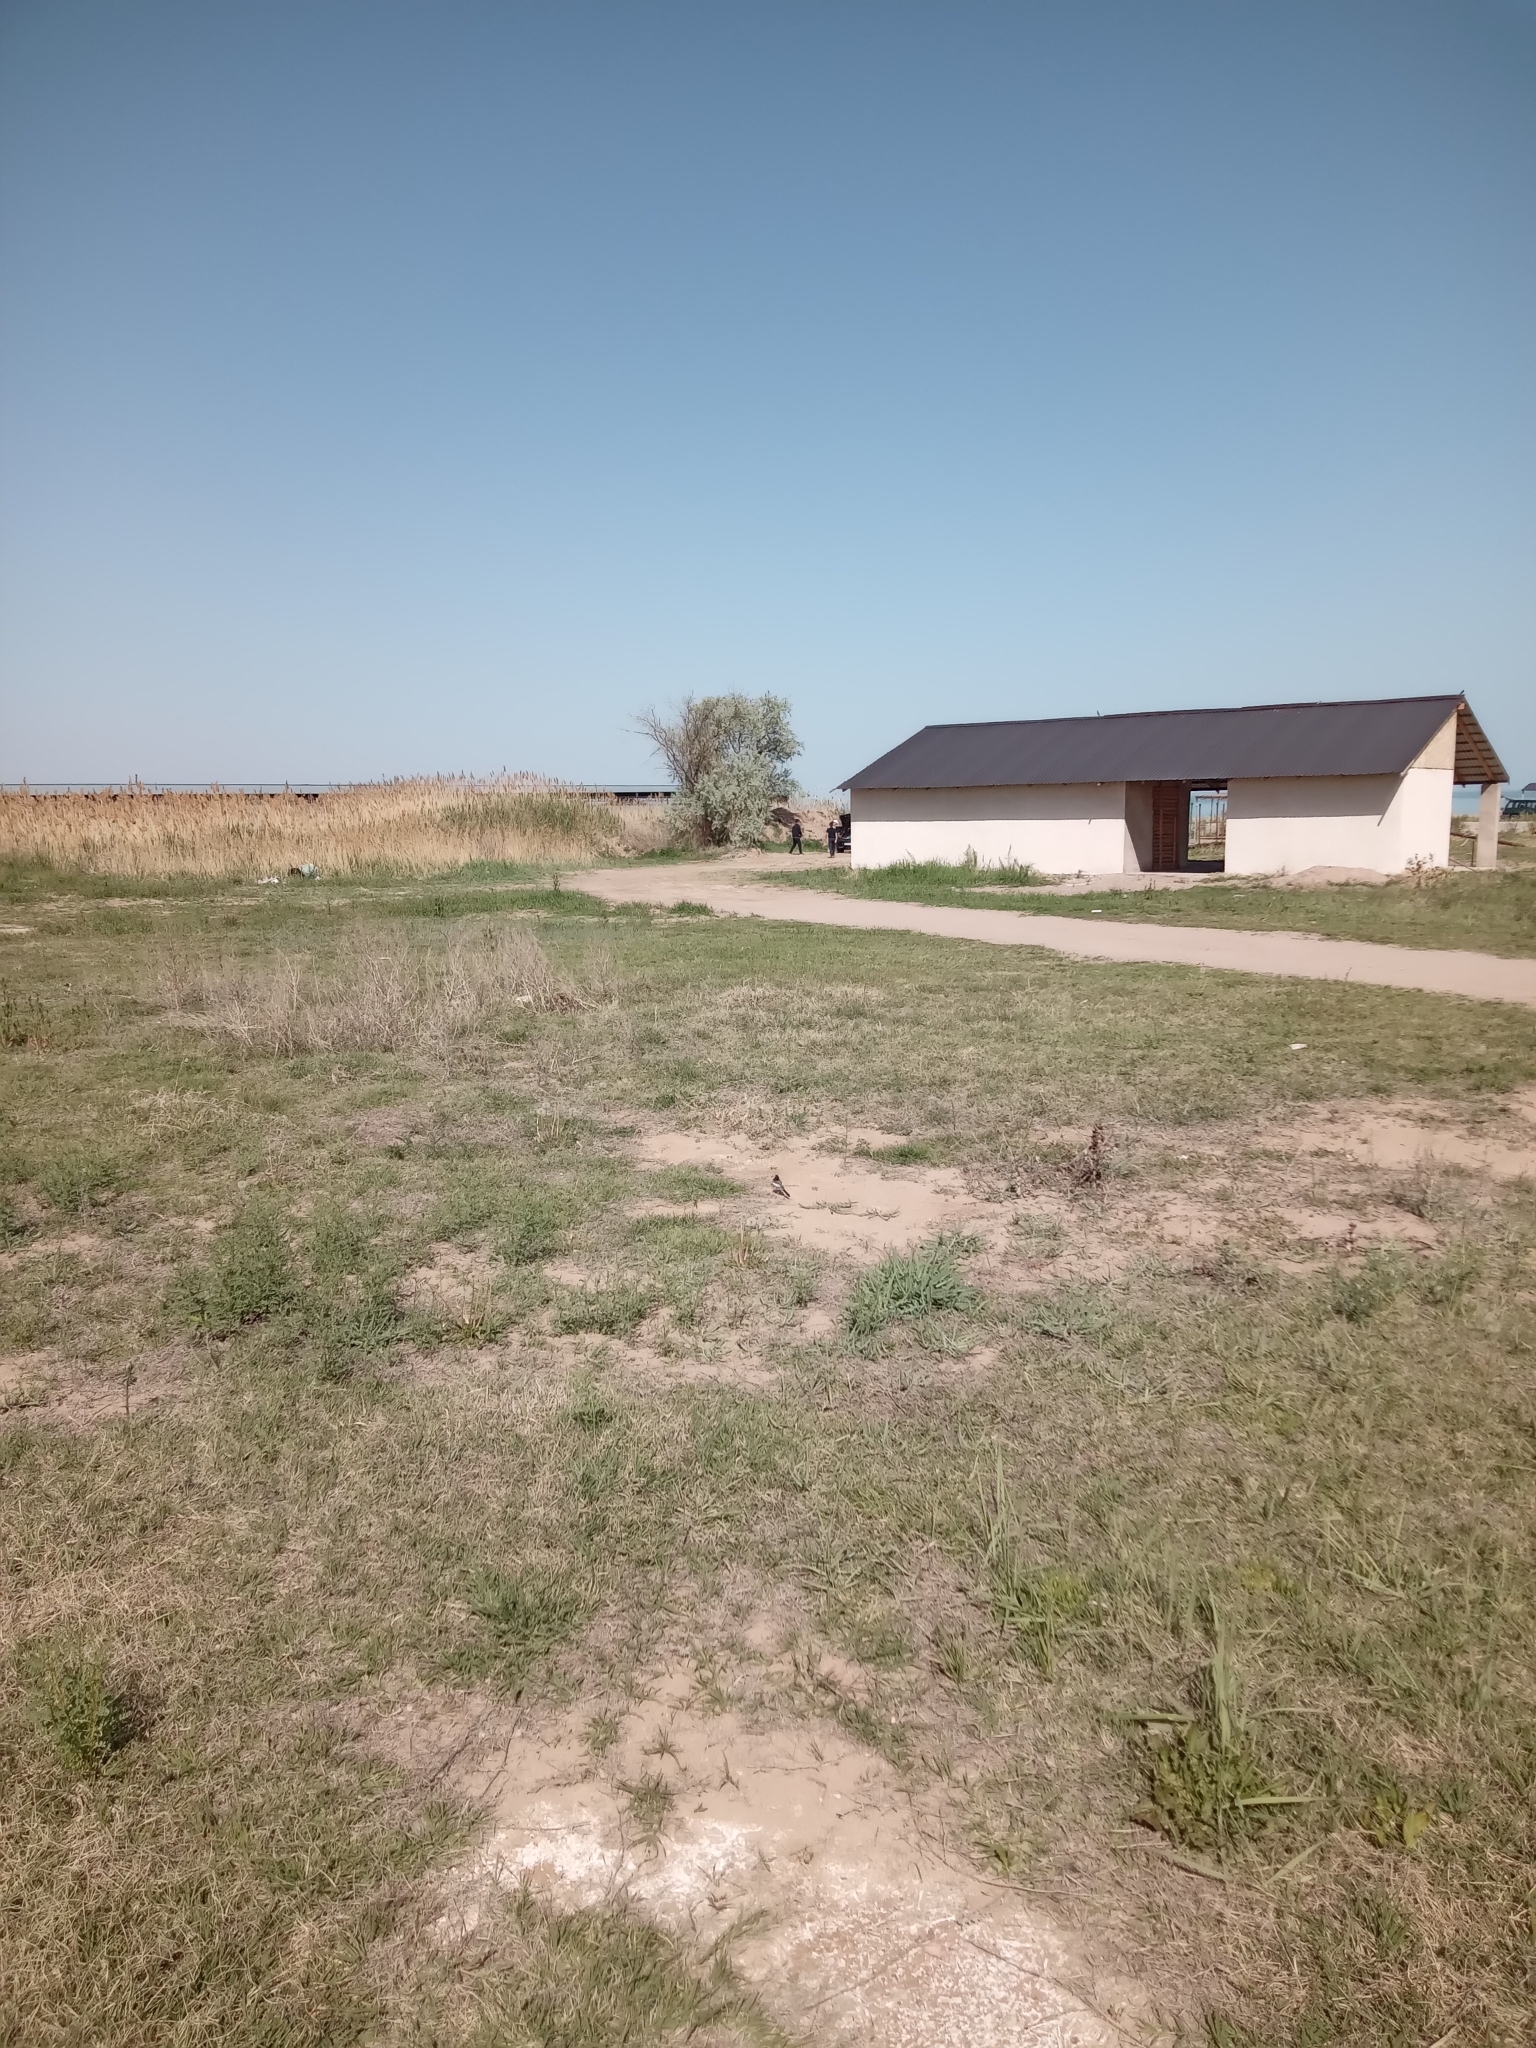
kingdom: Animalia
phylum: Chordata
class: Aves
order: Passeriformes
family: Motacillidae
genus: Motacilla
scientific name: Motacilla alba
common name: White wagtail
